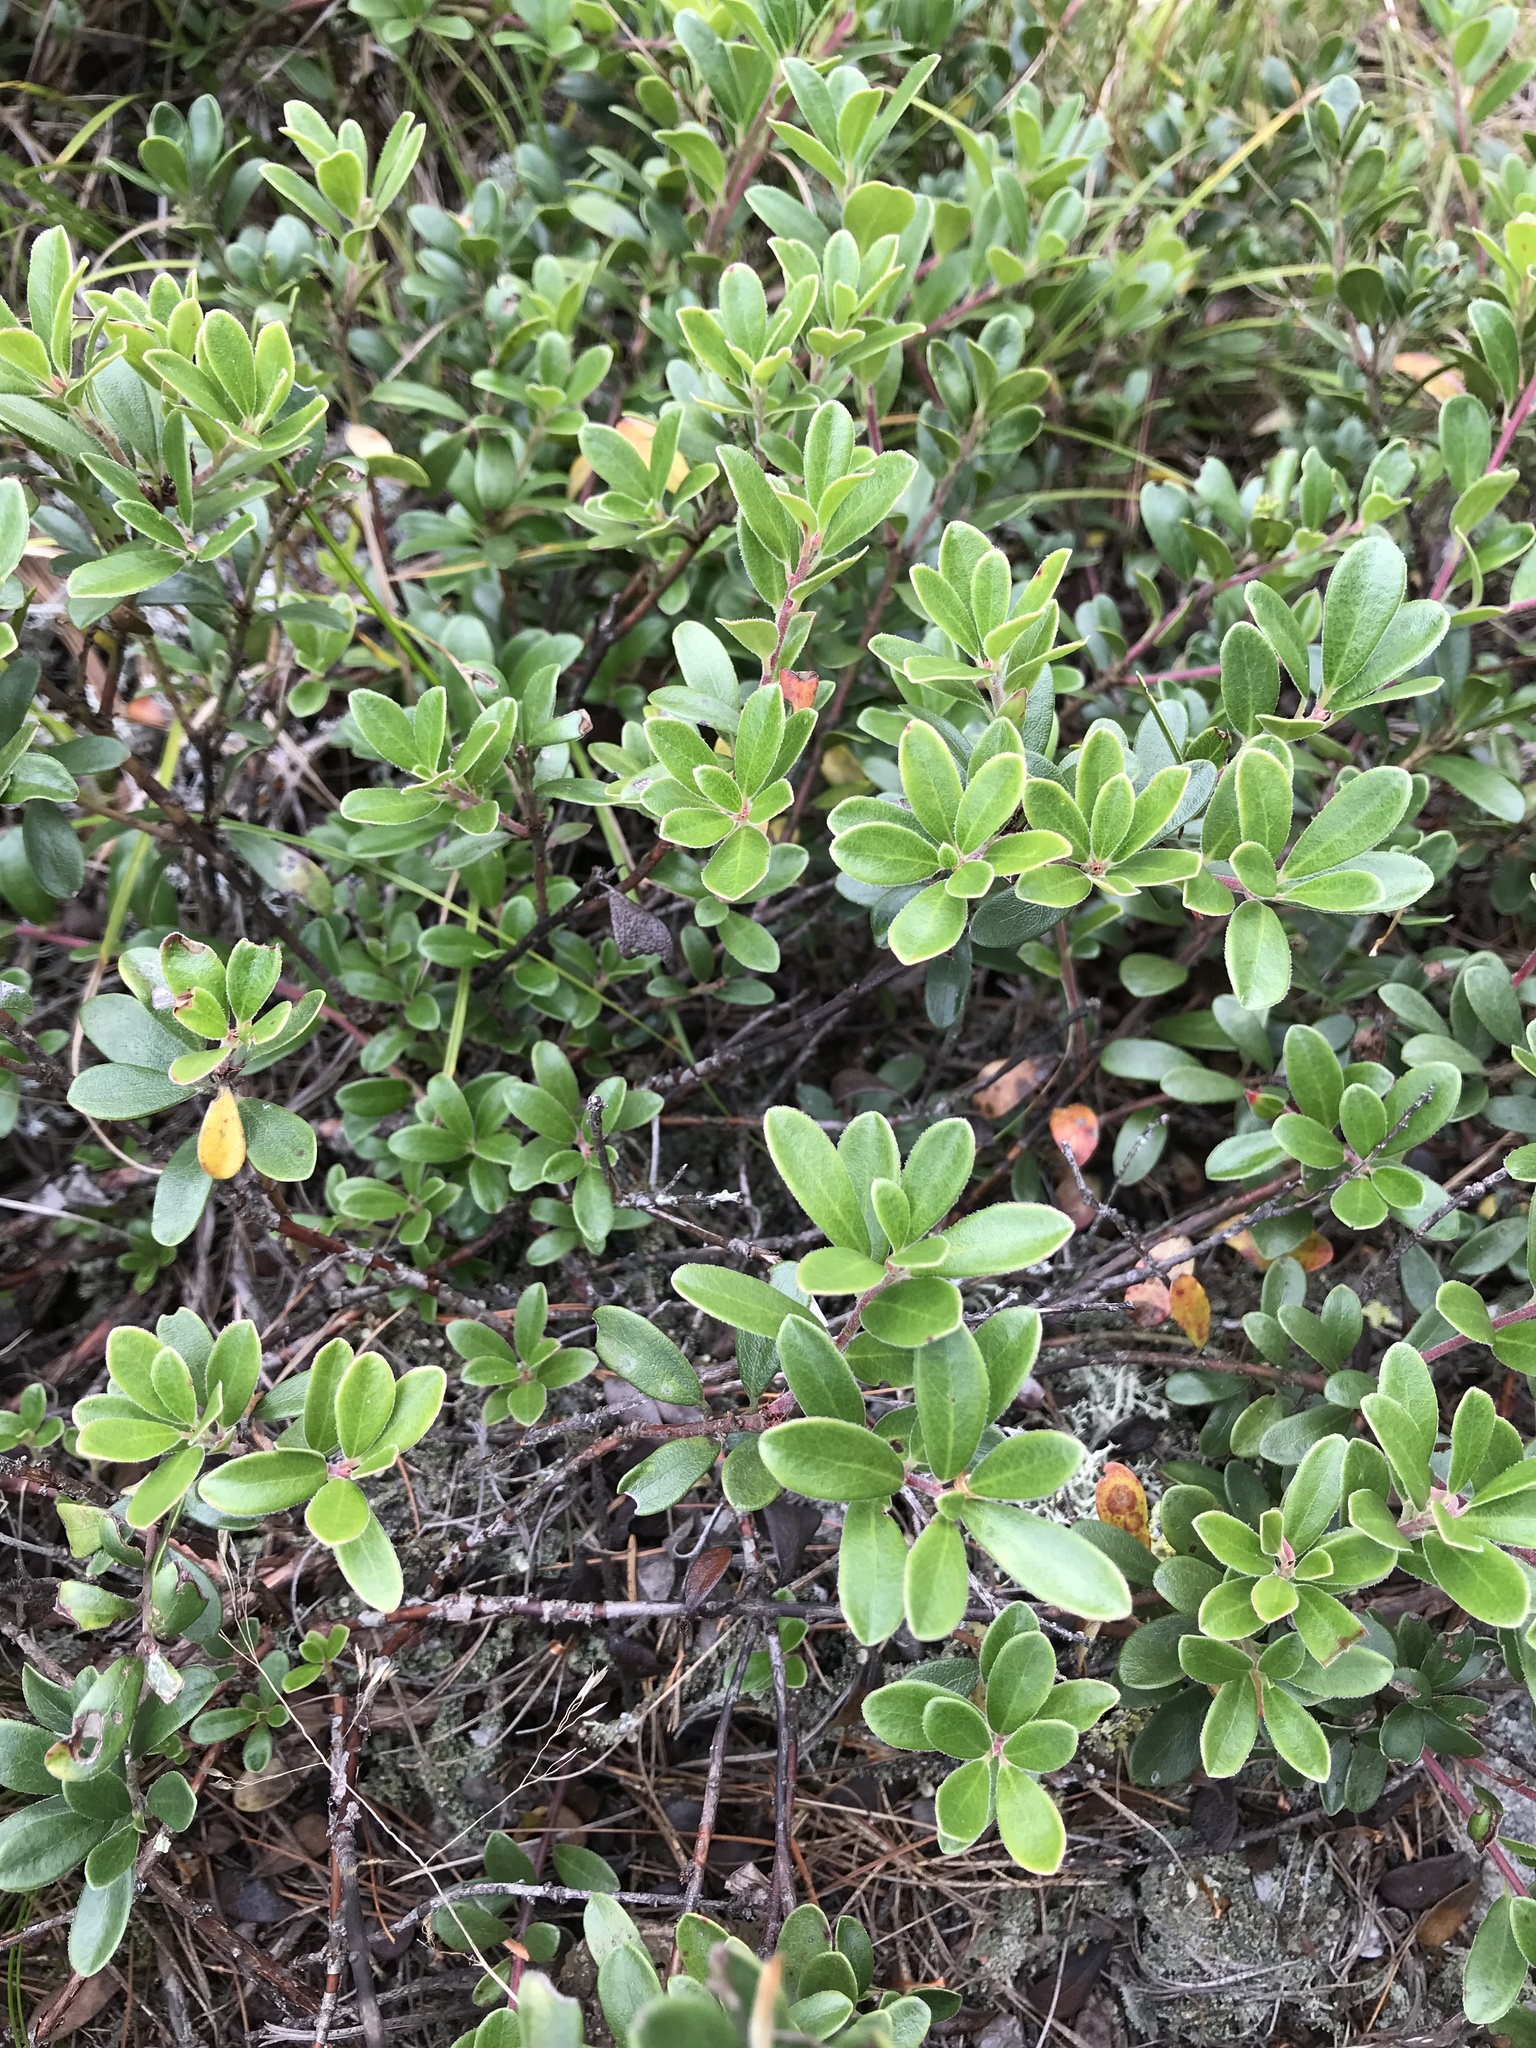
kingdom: Plantae
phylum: Tracheophyta
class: Magnoliopsida
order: Ericales
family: Ericaceae
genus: Arctostaphylos
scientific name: Arctostaphylos uva-ursi
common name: Bearberry
